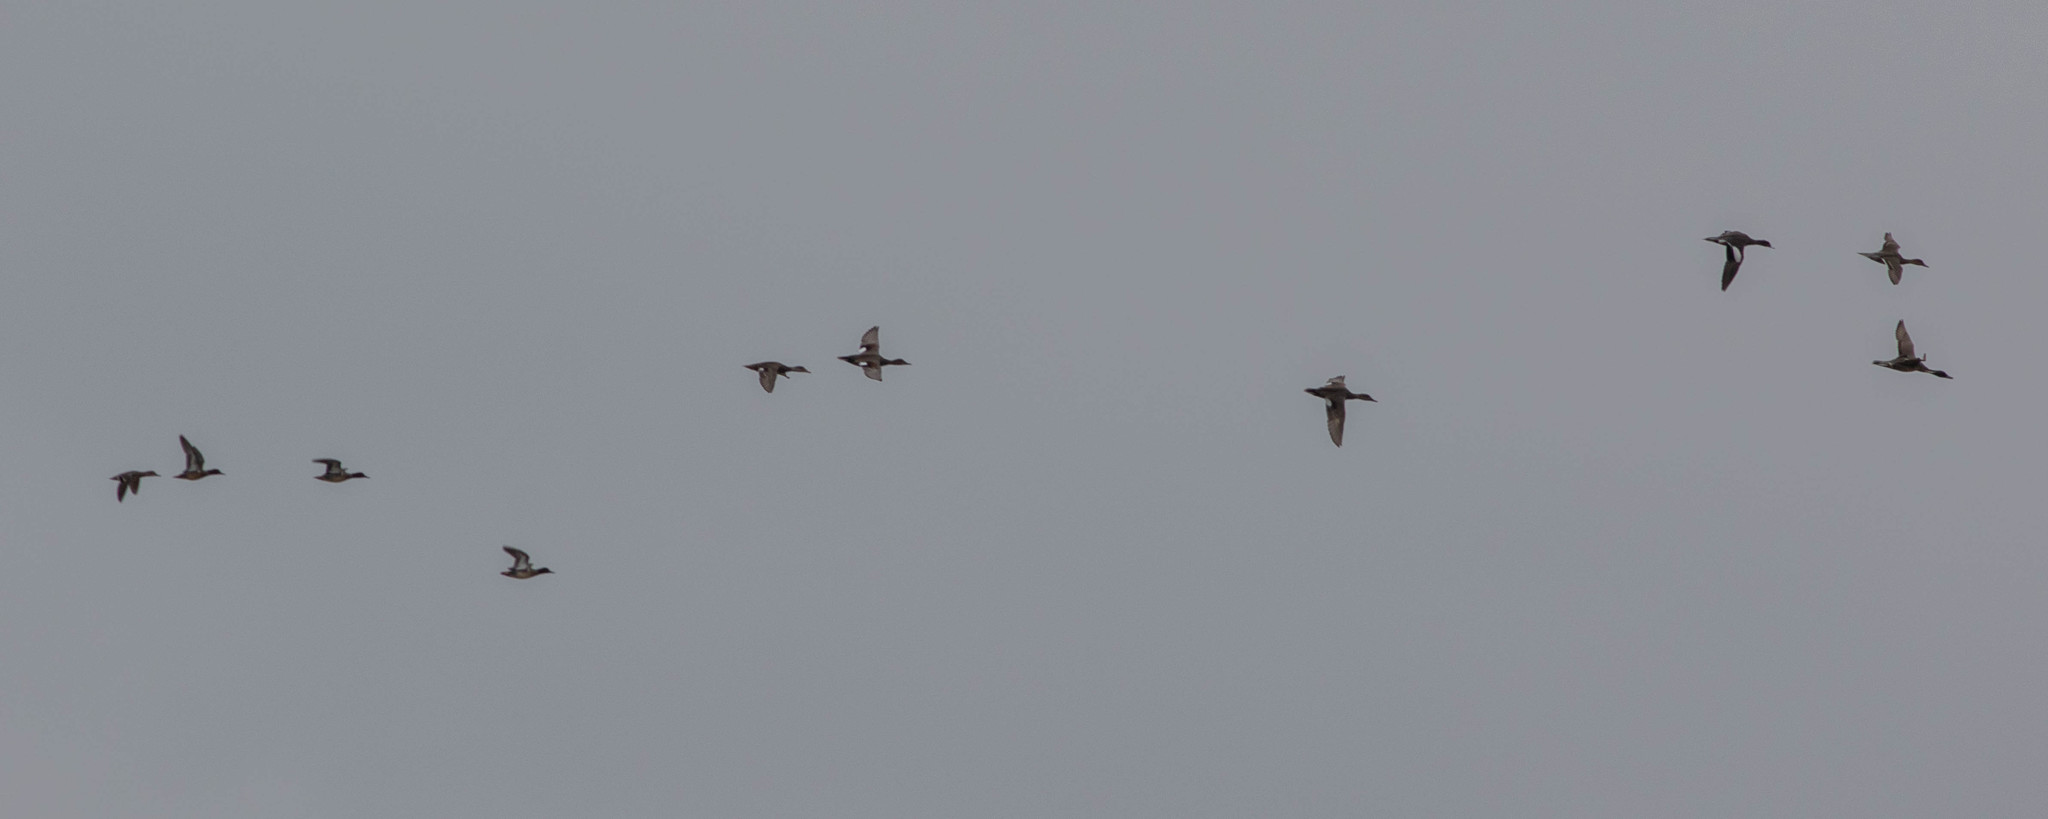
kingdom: Animalia
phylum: Chordata
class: Aves
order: Anseriformes
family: Anatidae
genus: Anas
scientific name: Anas acuta
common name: Northern pintail
